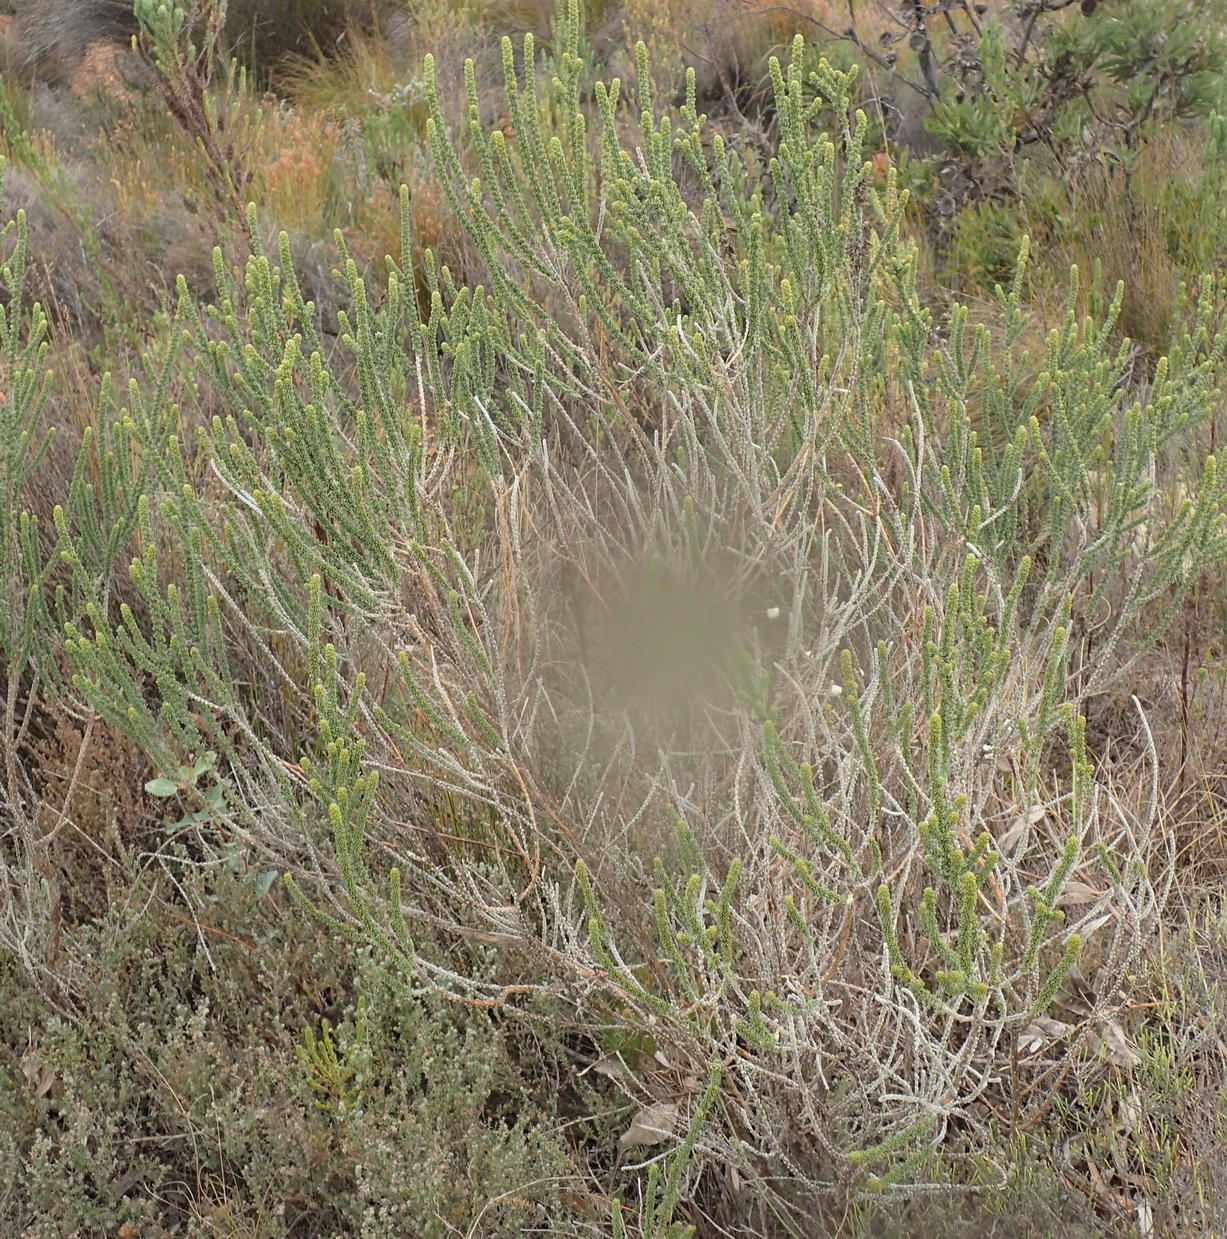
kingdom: Plantae
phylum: Tracheophyta
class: Magnoliopsida
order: Fabales
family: Fabaceae
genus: Aspalathus
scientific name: Aspalathus pinguis
